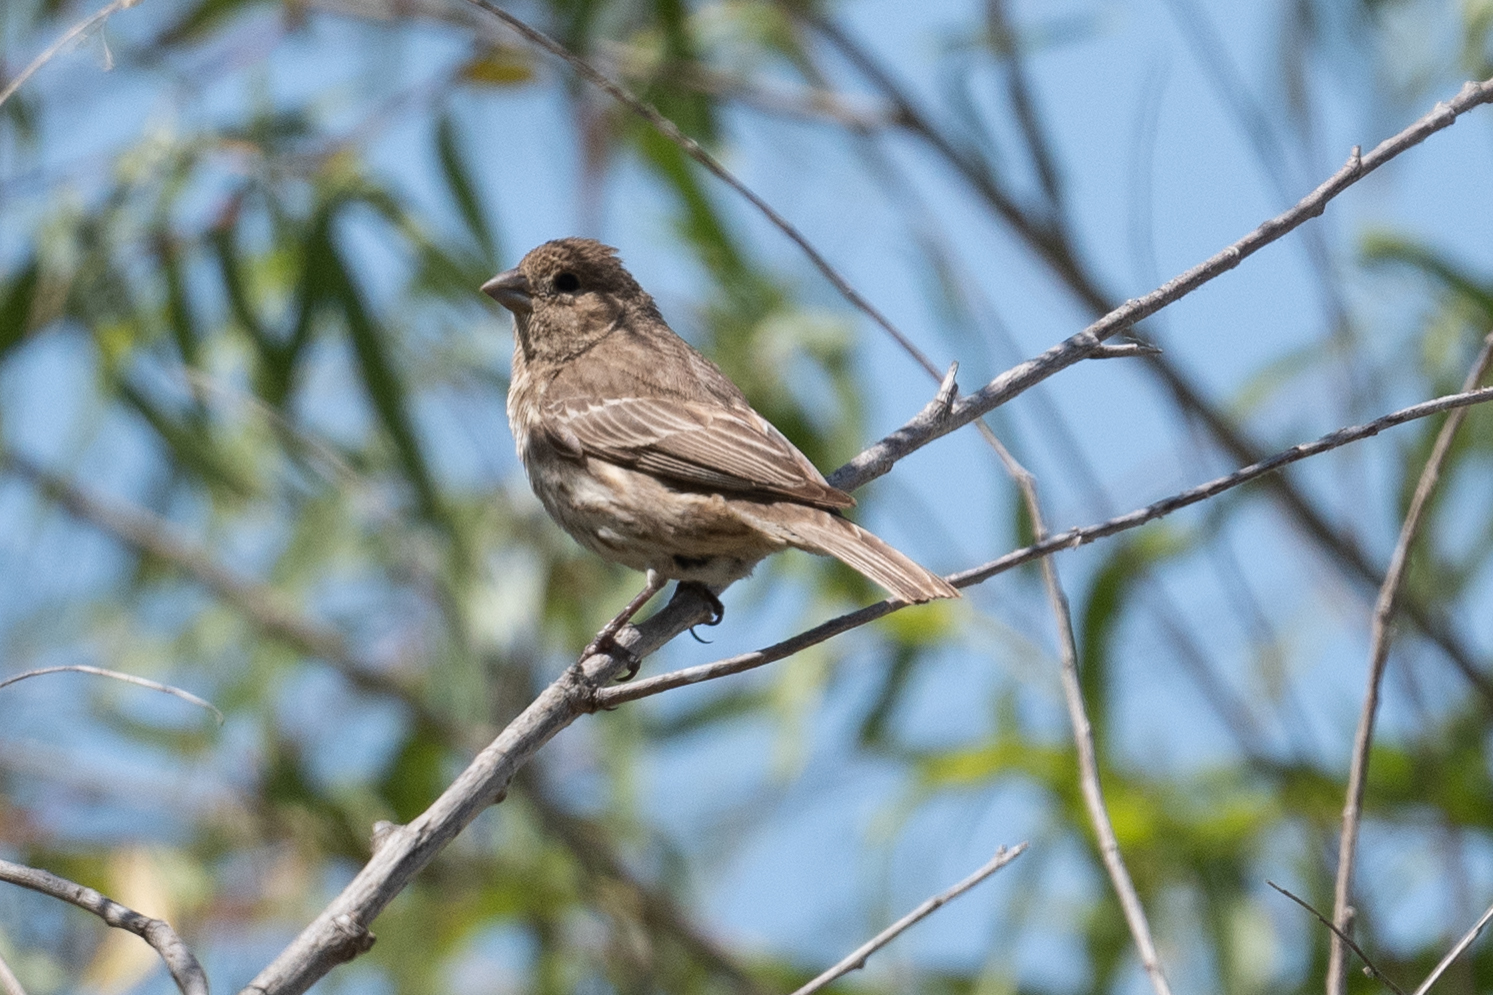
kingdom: Animalia
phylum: Chordata
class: Aves
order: Passeriformes
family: Fringillidae
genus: Haemorhous
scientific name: Haemorhous mexicanus
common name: House finch
